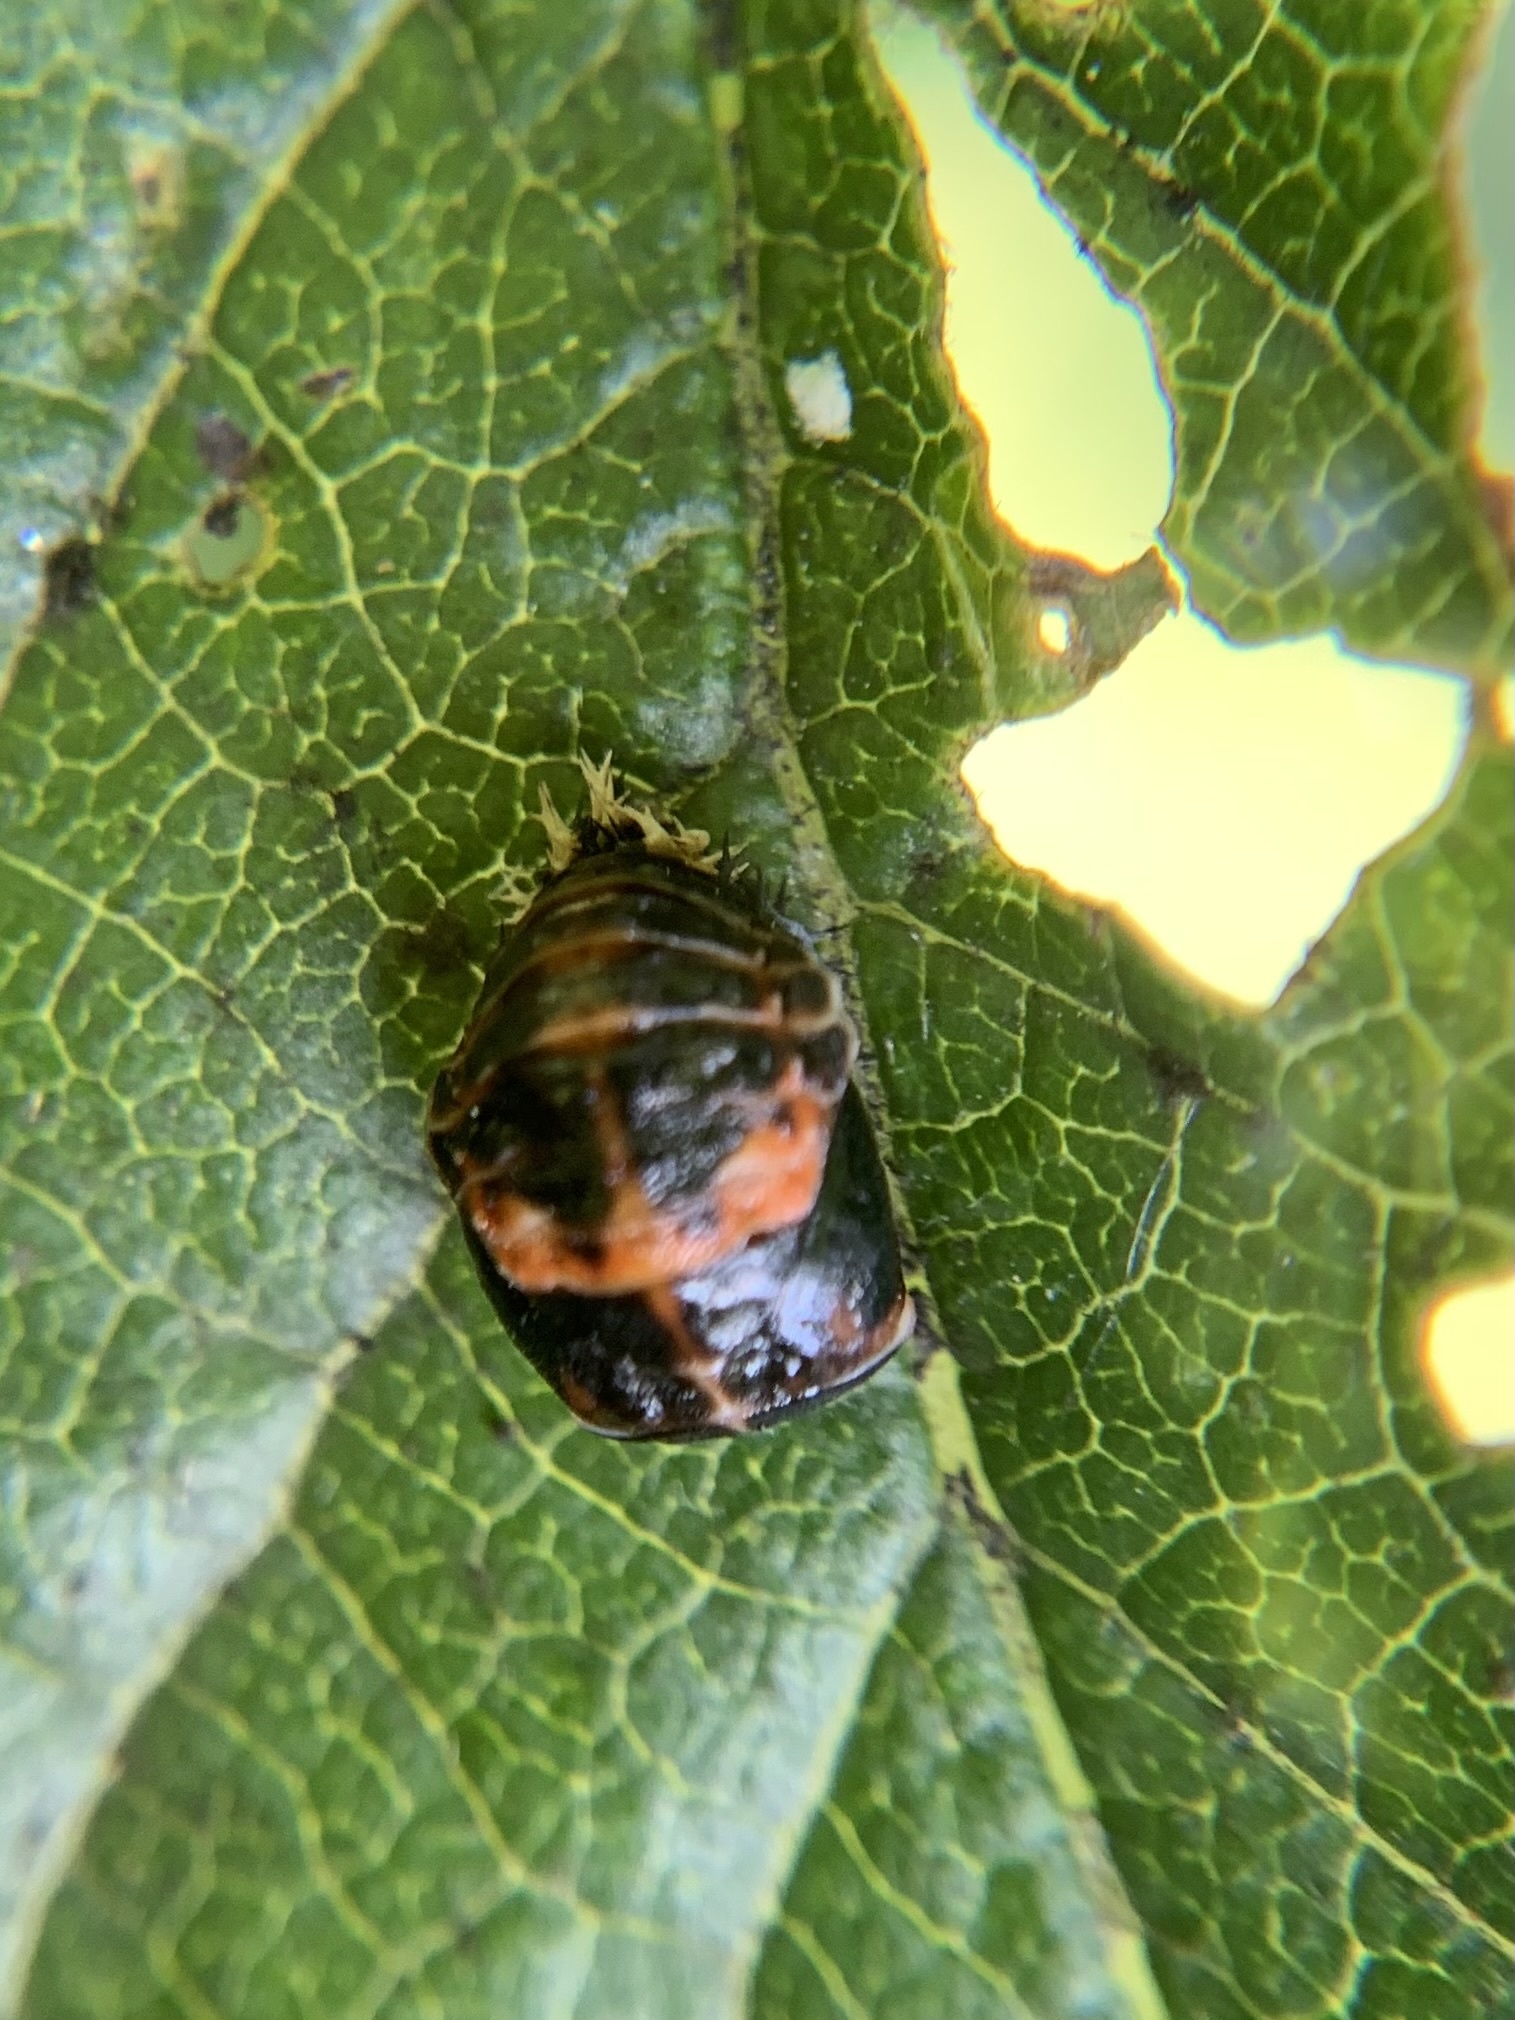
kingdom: Animalia
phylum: Arthropoda
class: Insecta
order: Coleoptera
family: Coccinellidae
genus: Harmonia
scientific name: Harmonia axyridis
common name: Harlequin ladybird
